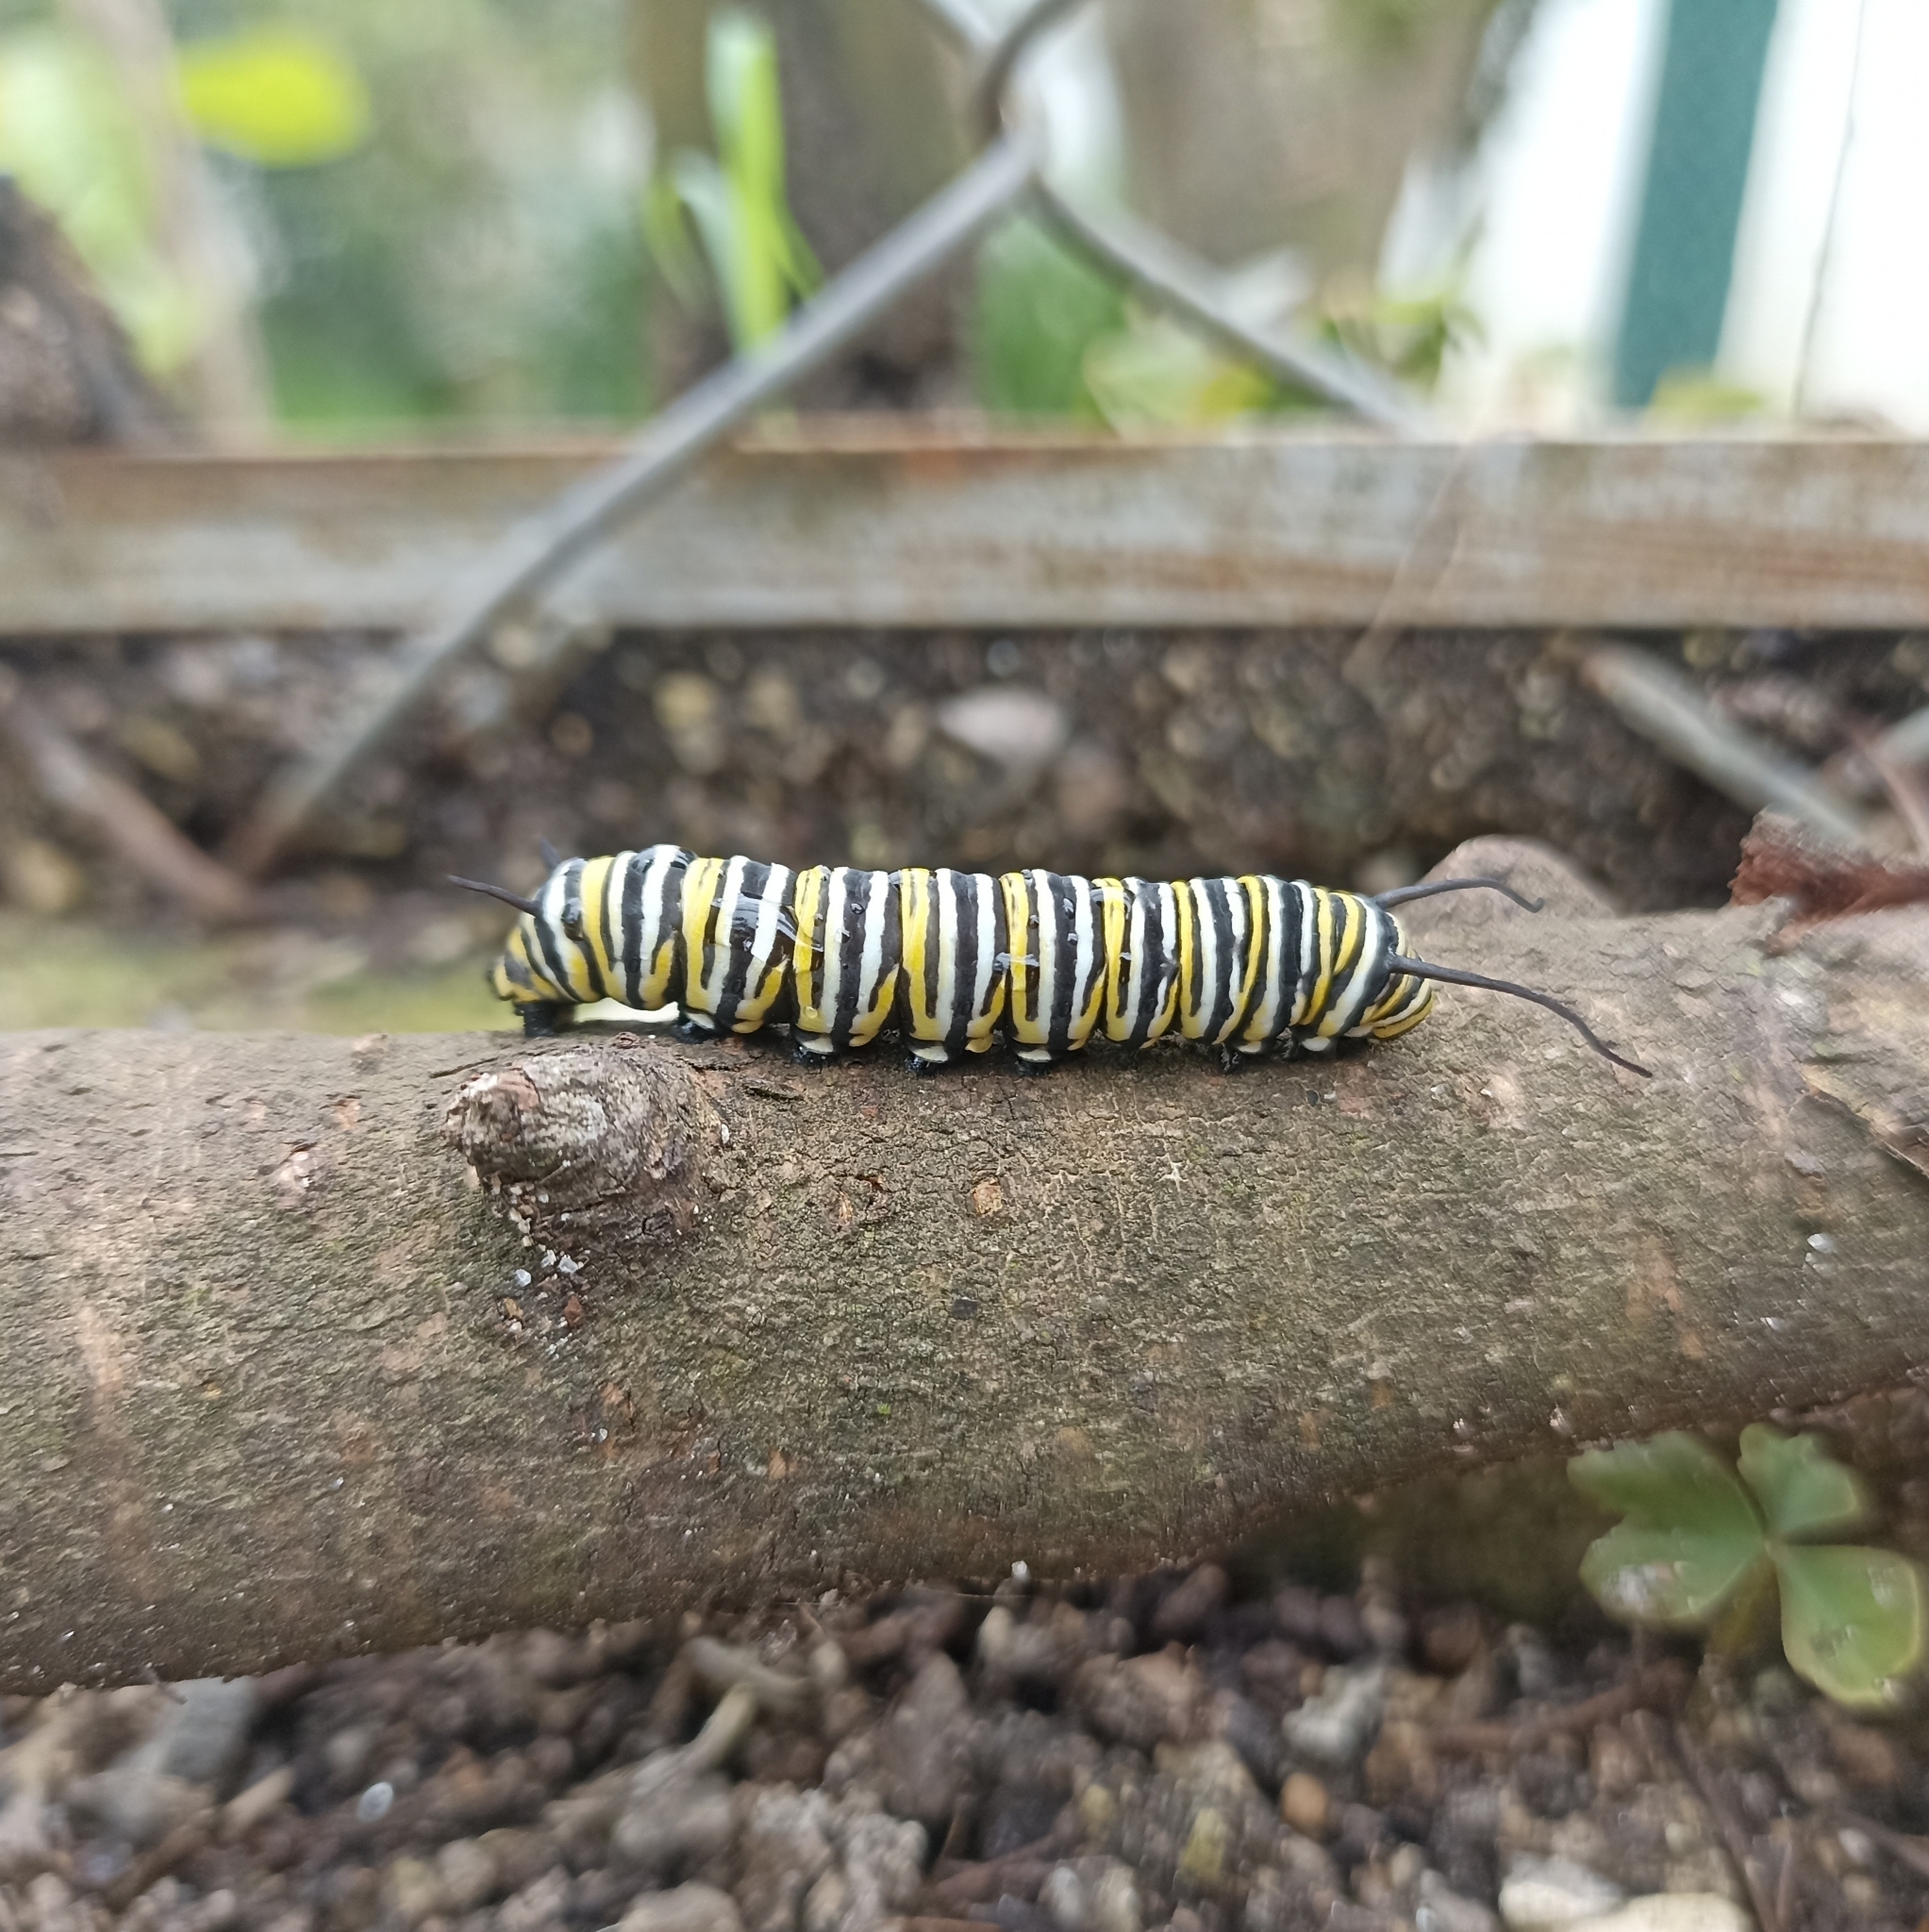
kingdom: Animalia
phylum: Arthropoda
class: Insecta
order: Lepidoptera
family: Nymphalidae
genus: Danaus
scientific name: Danaus plexippus
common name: Monarch
